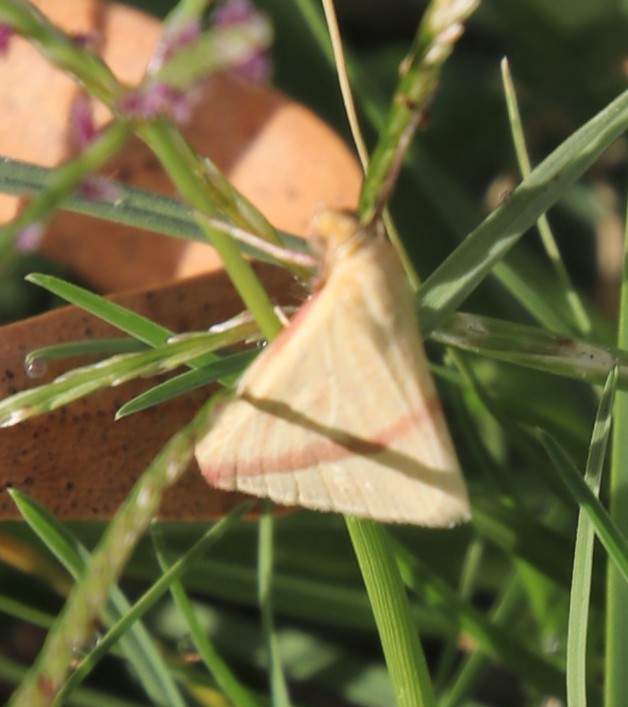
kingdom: Animalia
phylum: Arthropoda
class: Insecta
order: Lepidoptera
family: Geometridae
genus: Rhodometra
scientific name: Rhodometra sacraria
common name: Vestal
